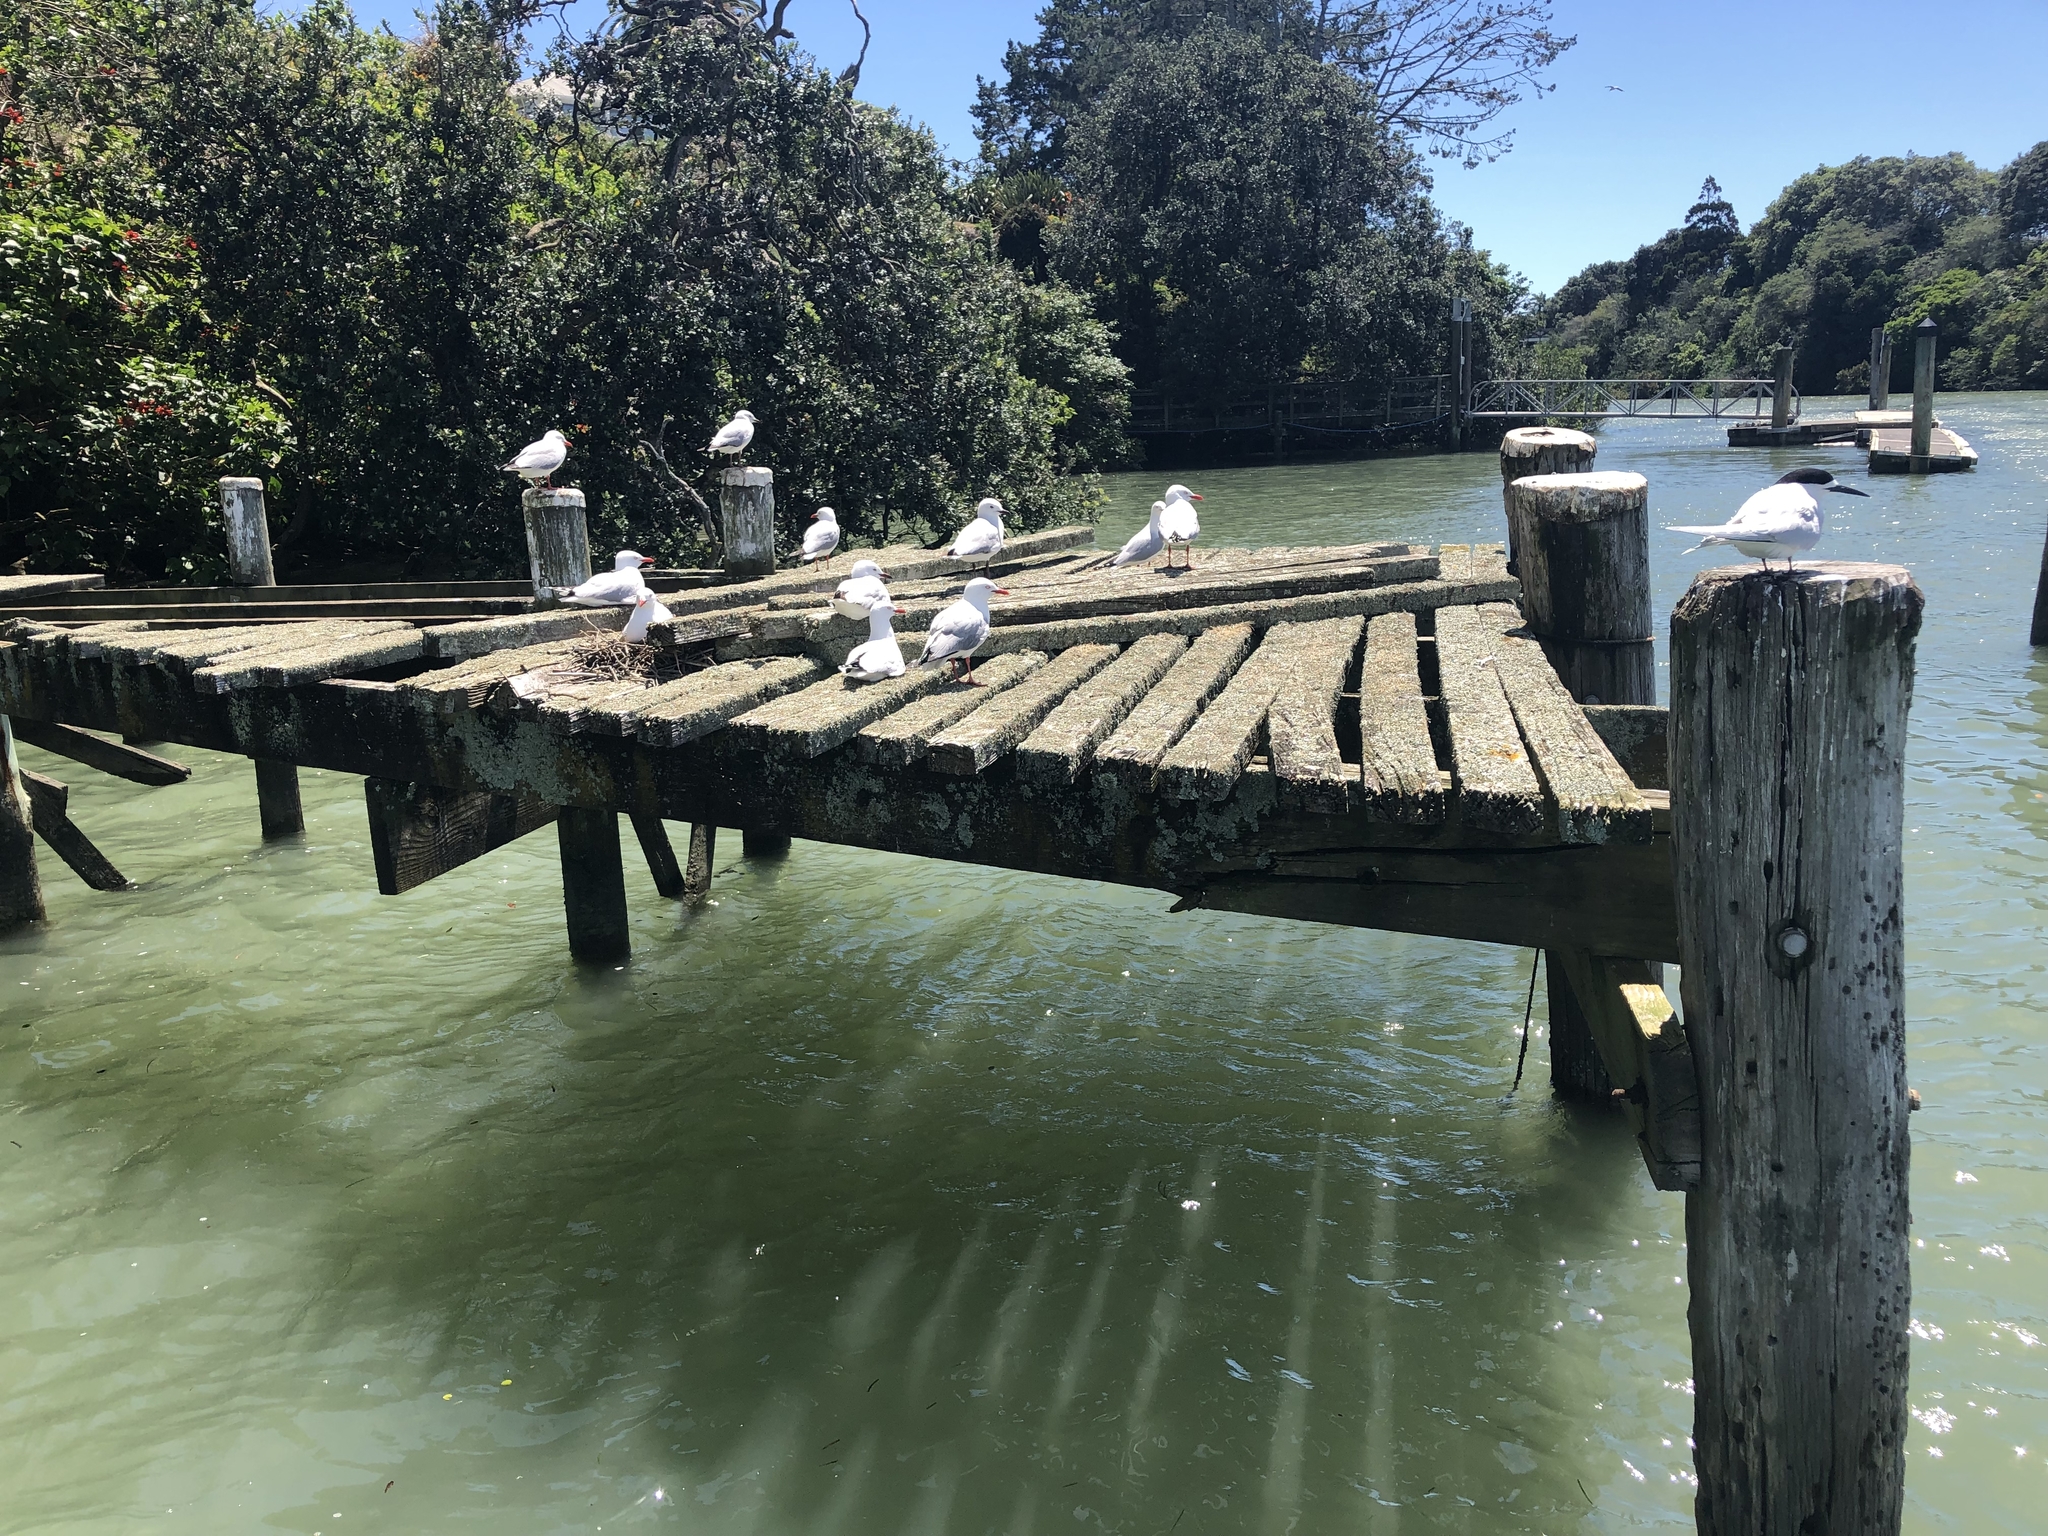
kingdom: Animalia
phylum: Chordata
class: Aves
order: Charadriiformes
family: Laridae
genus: Chroicocephalus
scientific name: Chroicocephalus novaehollandiae
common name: Silver gull
